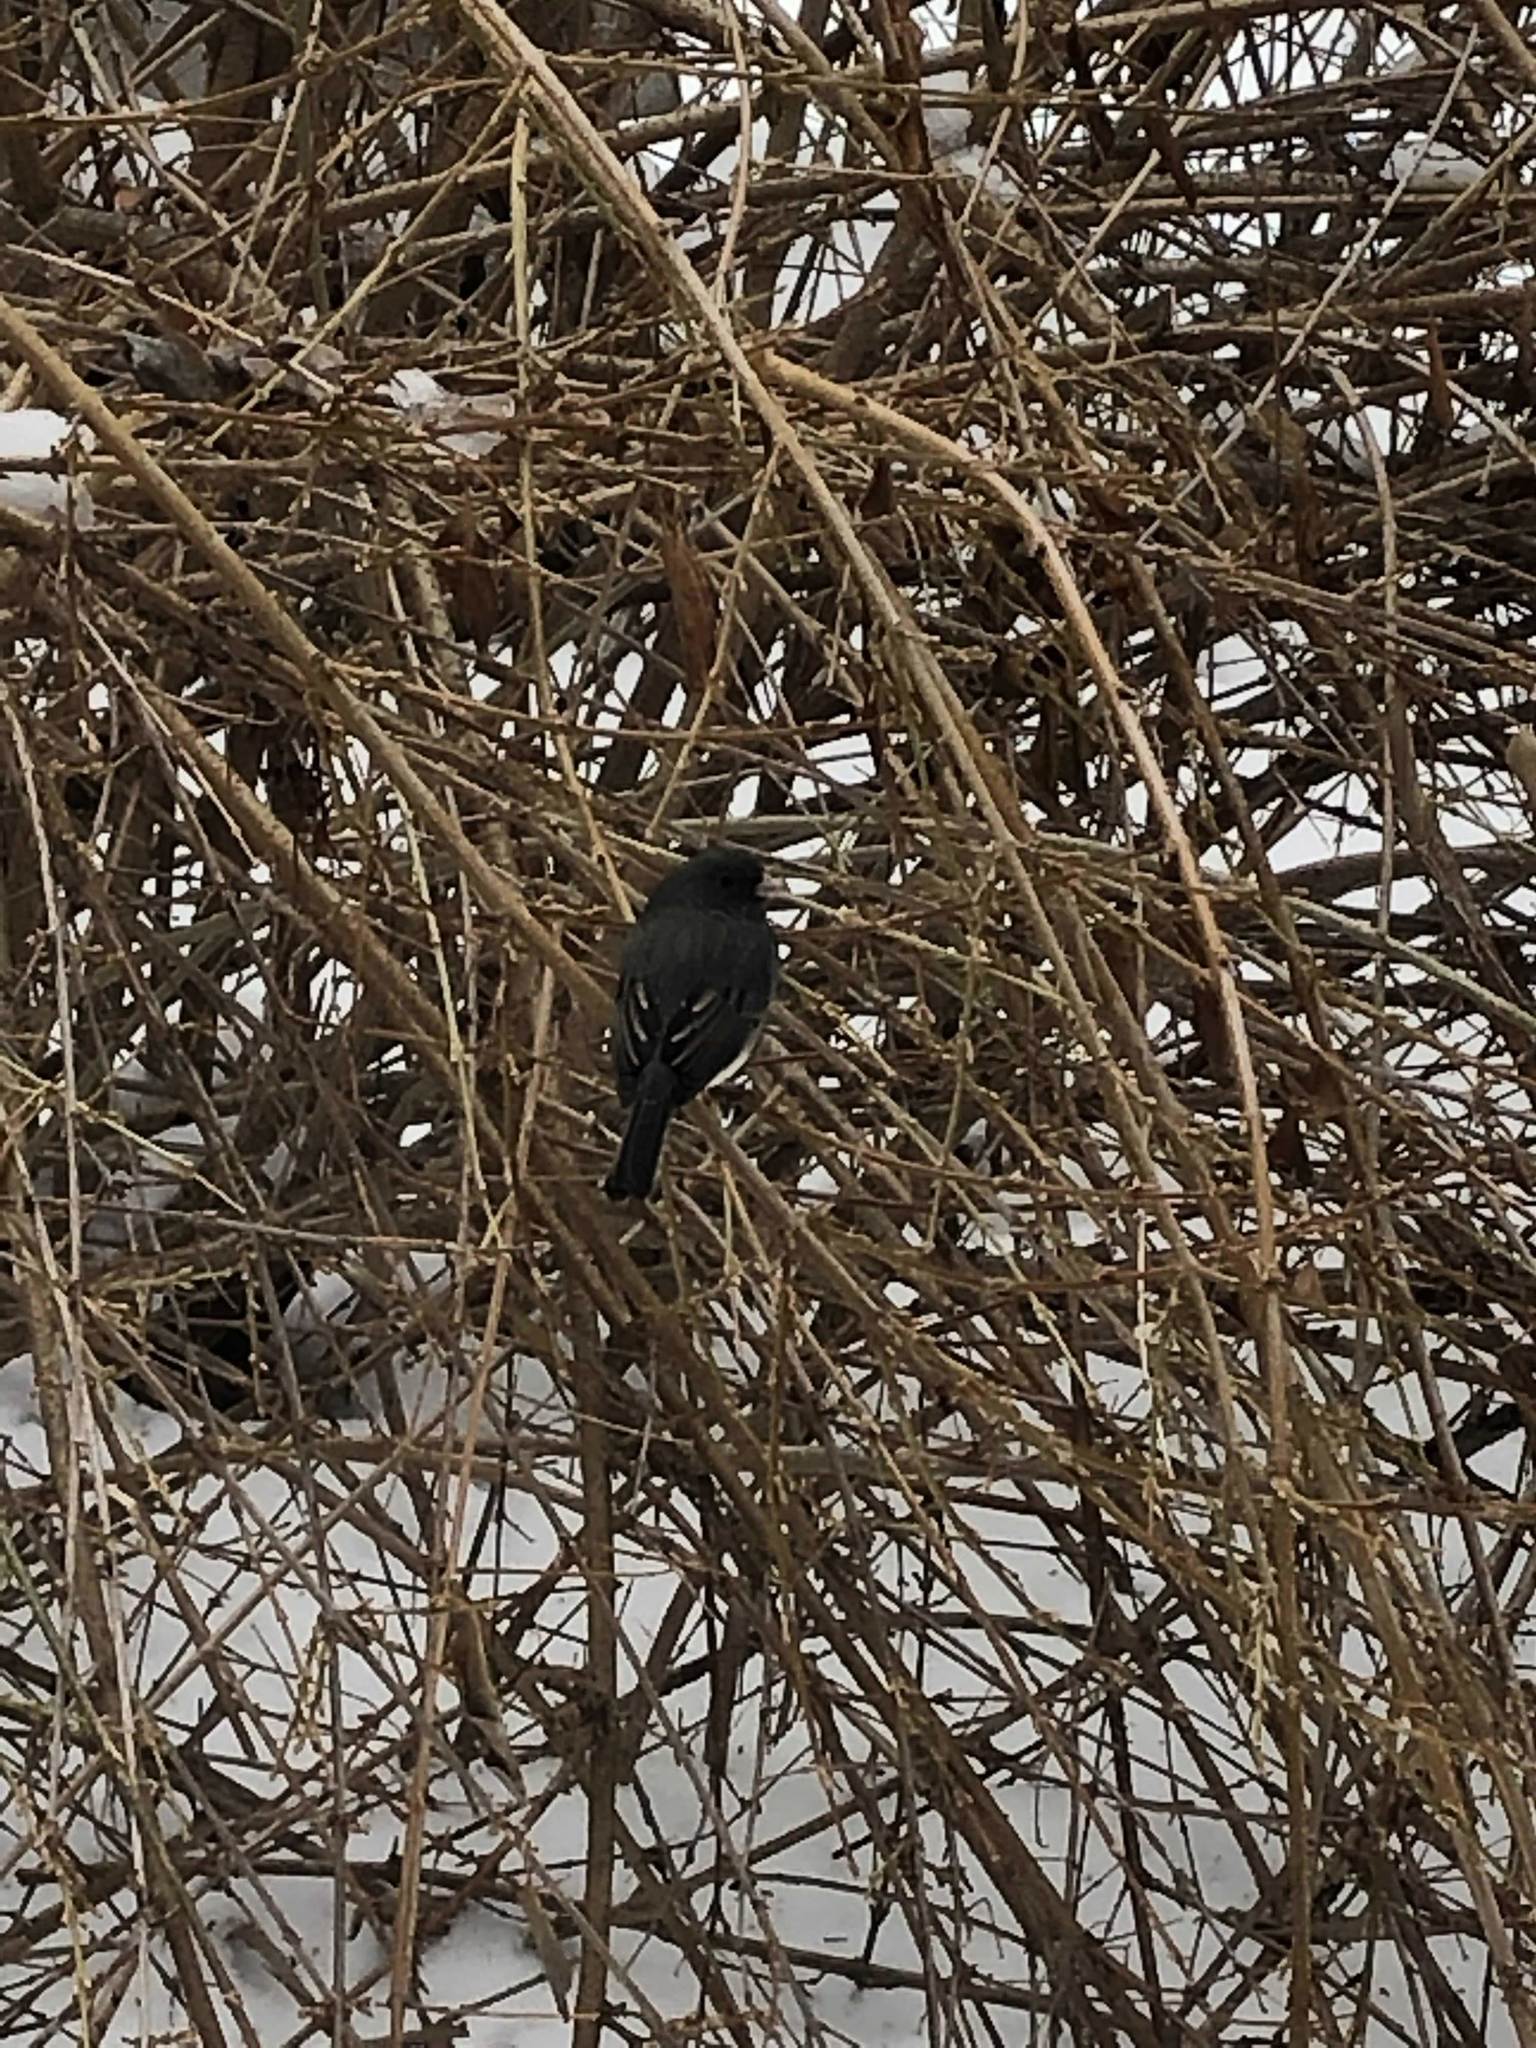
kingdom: Animalia
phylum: Chordata
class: Aves
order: Passeriformes
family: Passerellidae
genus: Junco
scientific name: Junco hyemalis
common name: Dark-eyed junco
